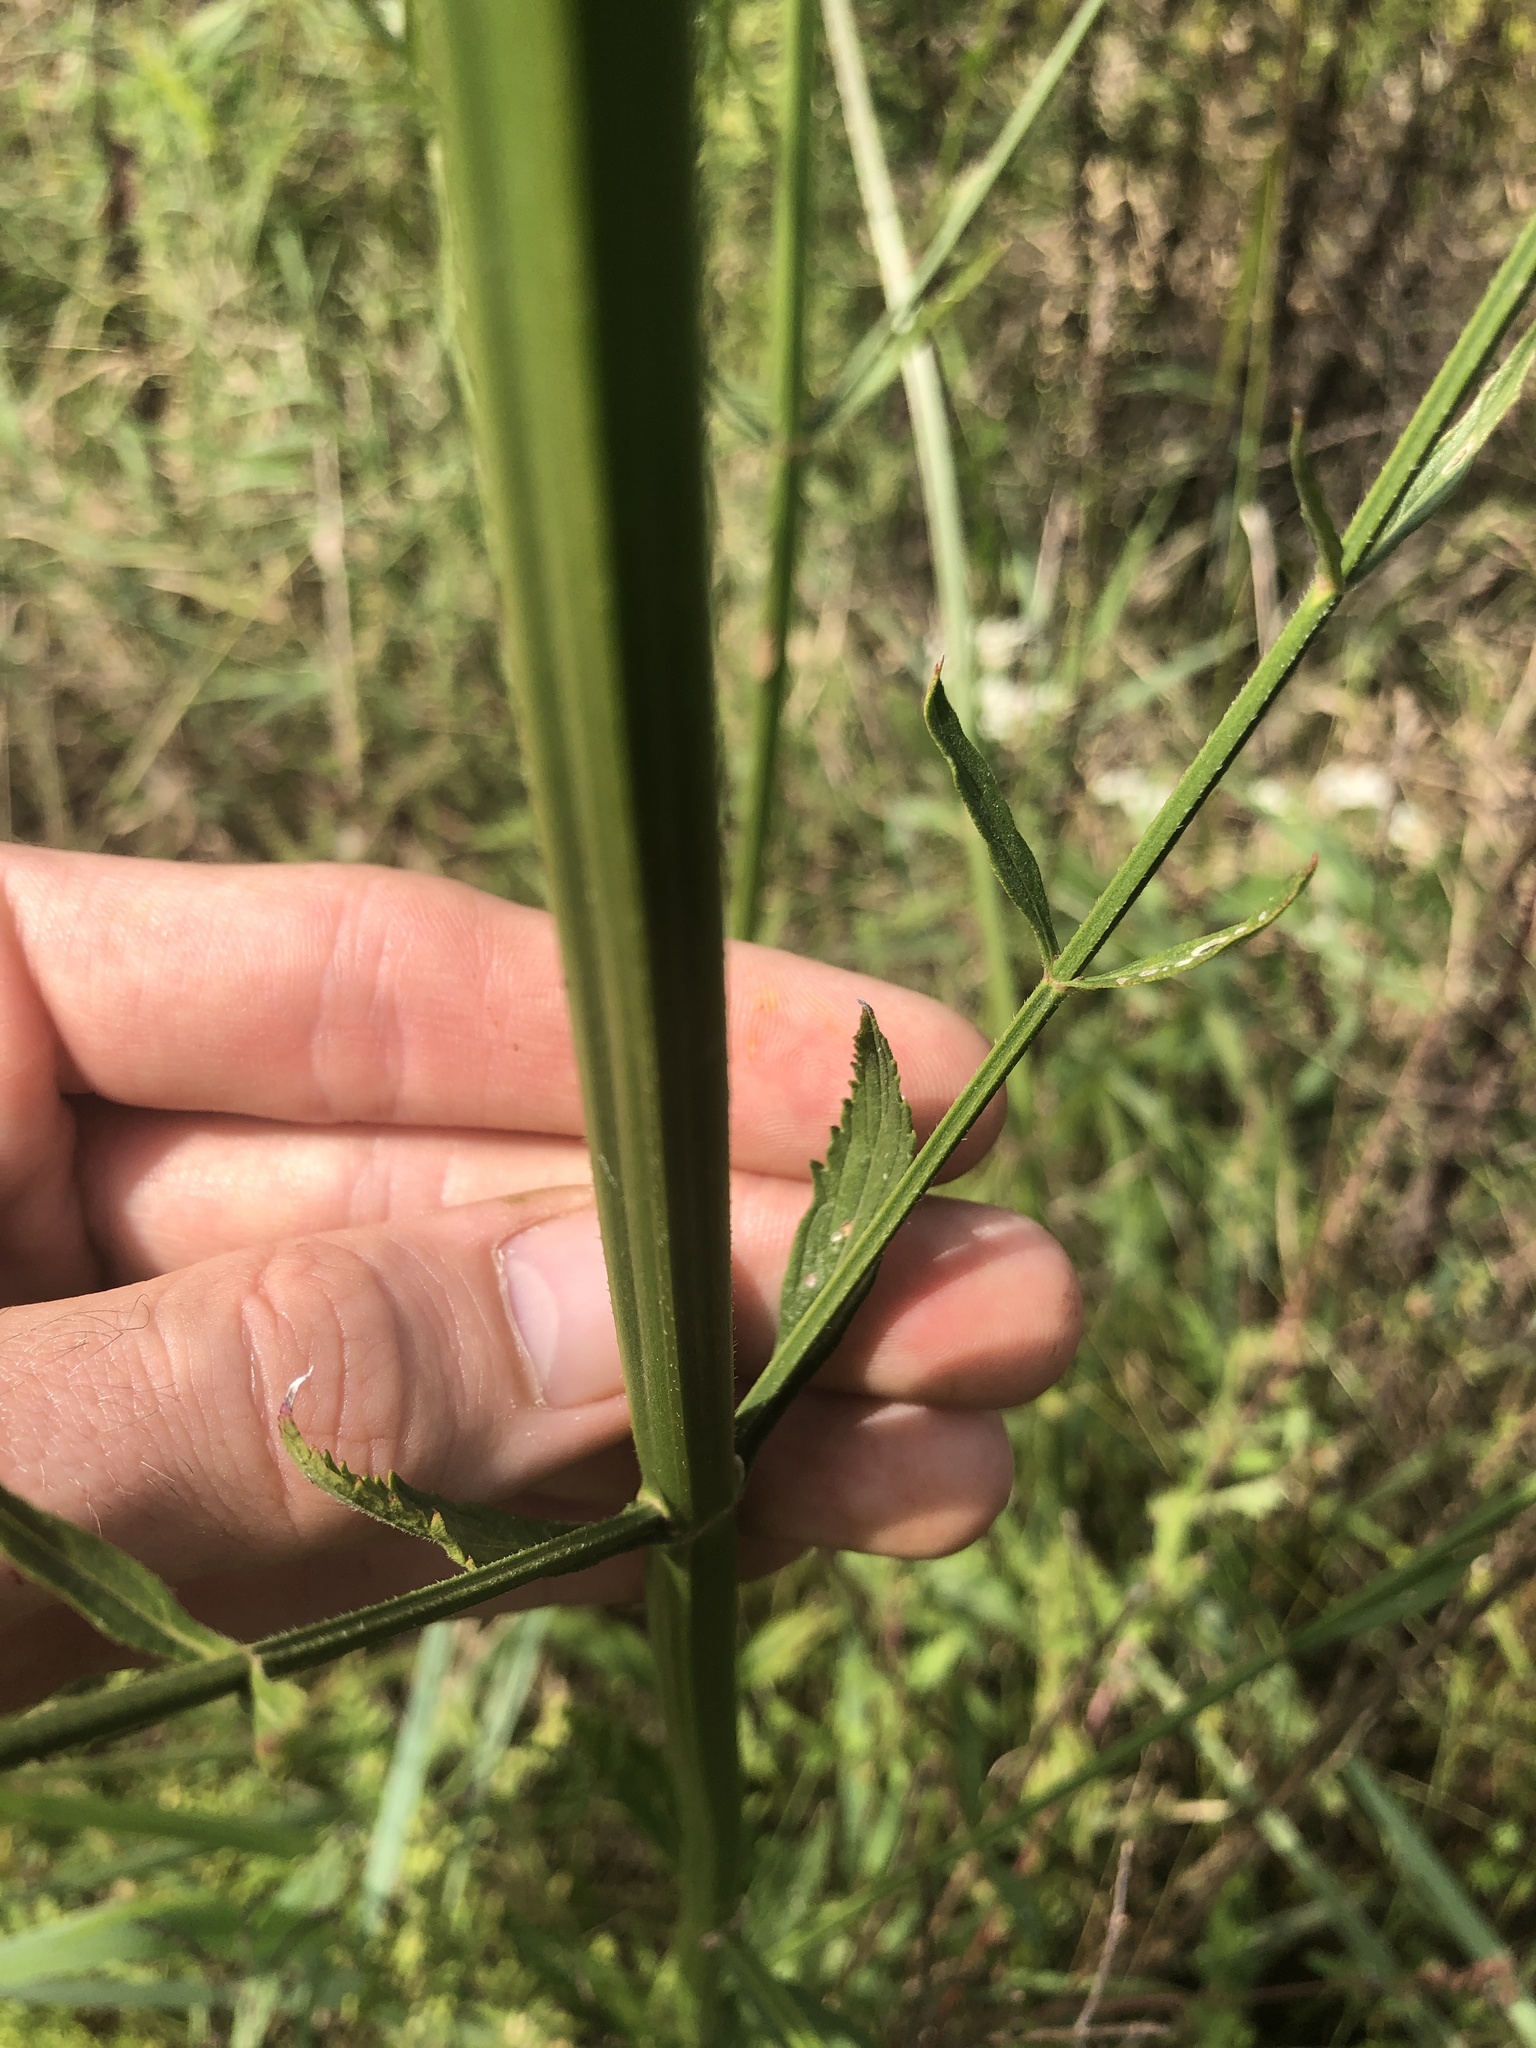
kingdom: Plantae
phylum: Tracheophyta
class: Magnoliopsida
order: Lamiales
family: Verbenaceae
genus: Verbena
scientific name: Verbena hastata
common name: American blue vervain
